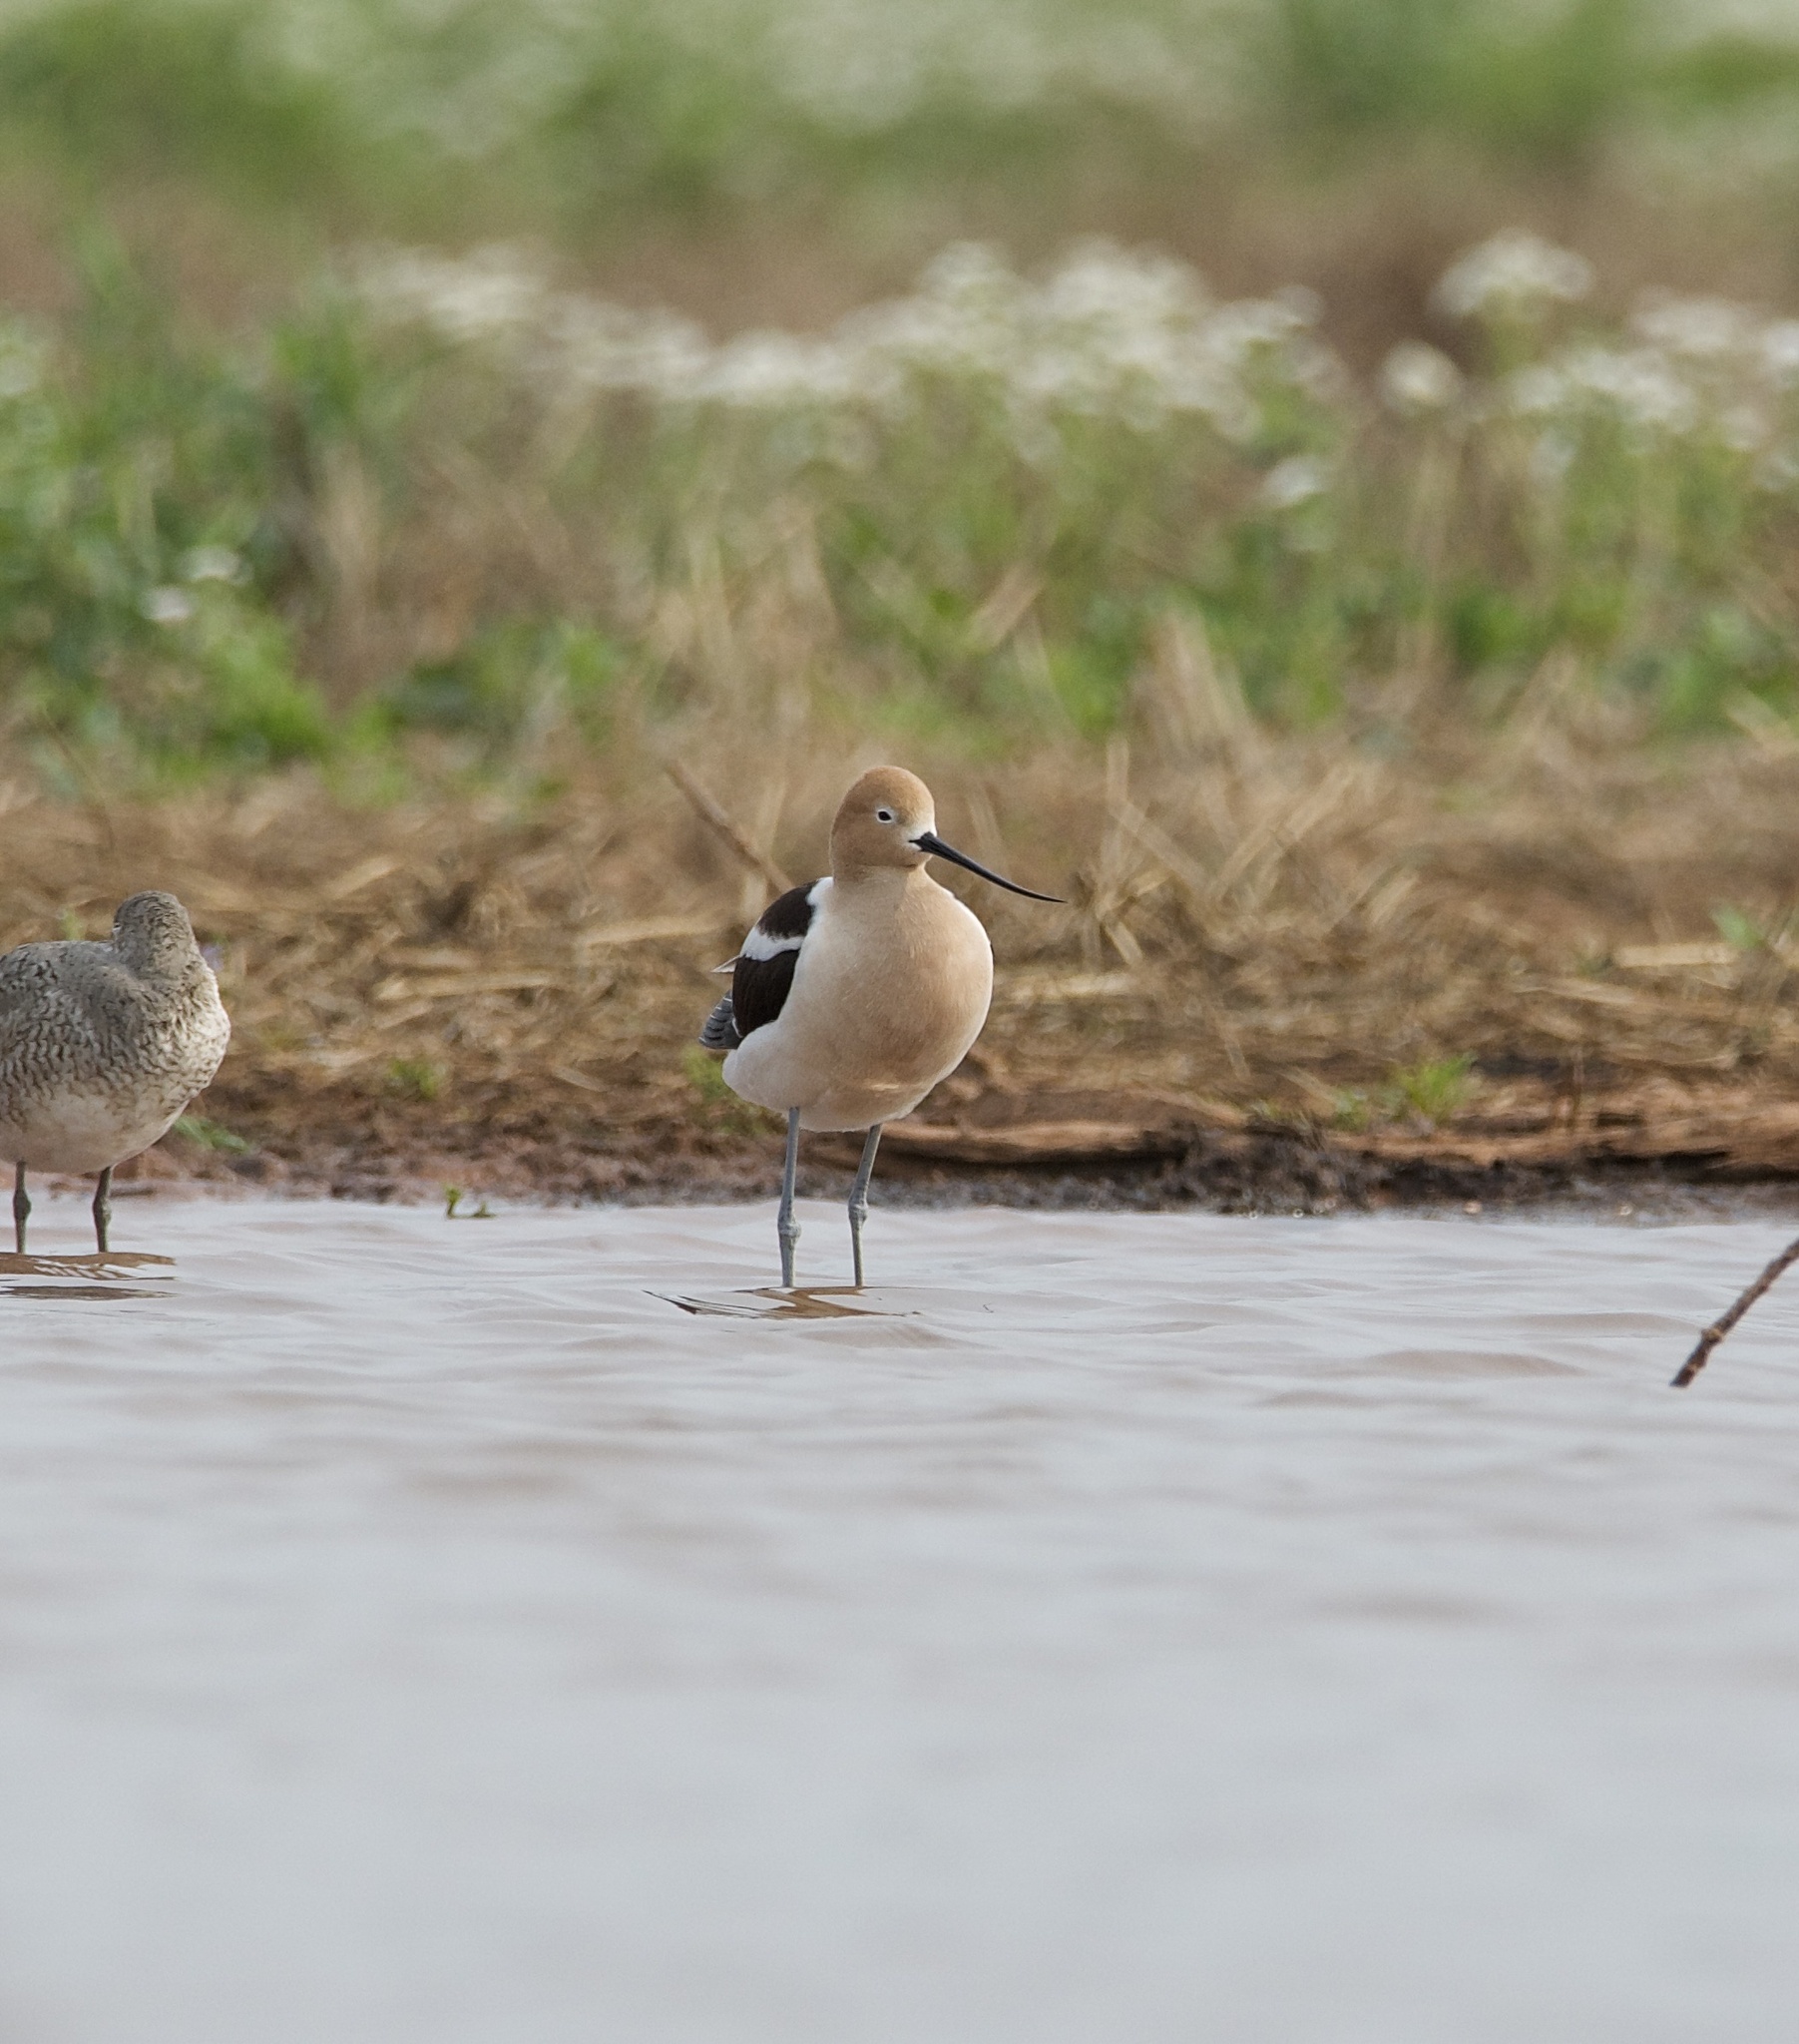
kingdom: Animalia
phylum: Chordata
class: Aves
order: Charadriiformes
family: Recurvirostridae
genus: Recurvirostra
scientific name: Recurvirostra americana
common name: American avocet
